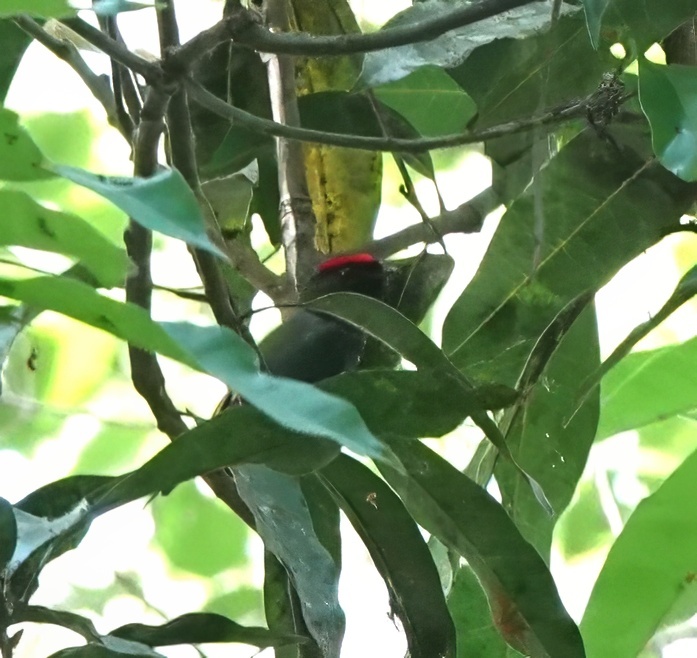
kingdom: Animalia
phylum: Chordata
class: Aves
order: Passeriformes
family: Pipridae
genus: Chiroxiphia
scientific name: Chiroxiphia lanceolata
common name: Lance-tailed manakin
